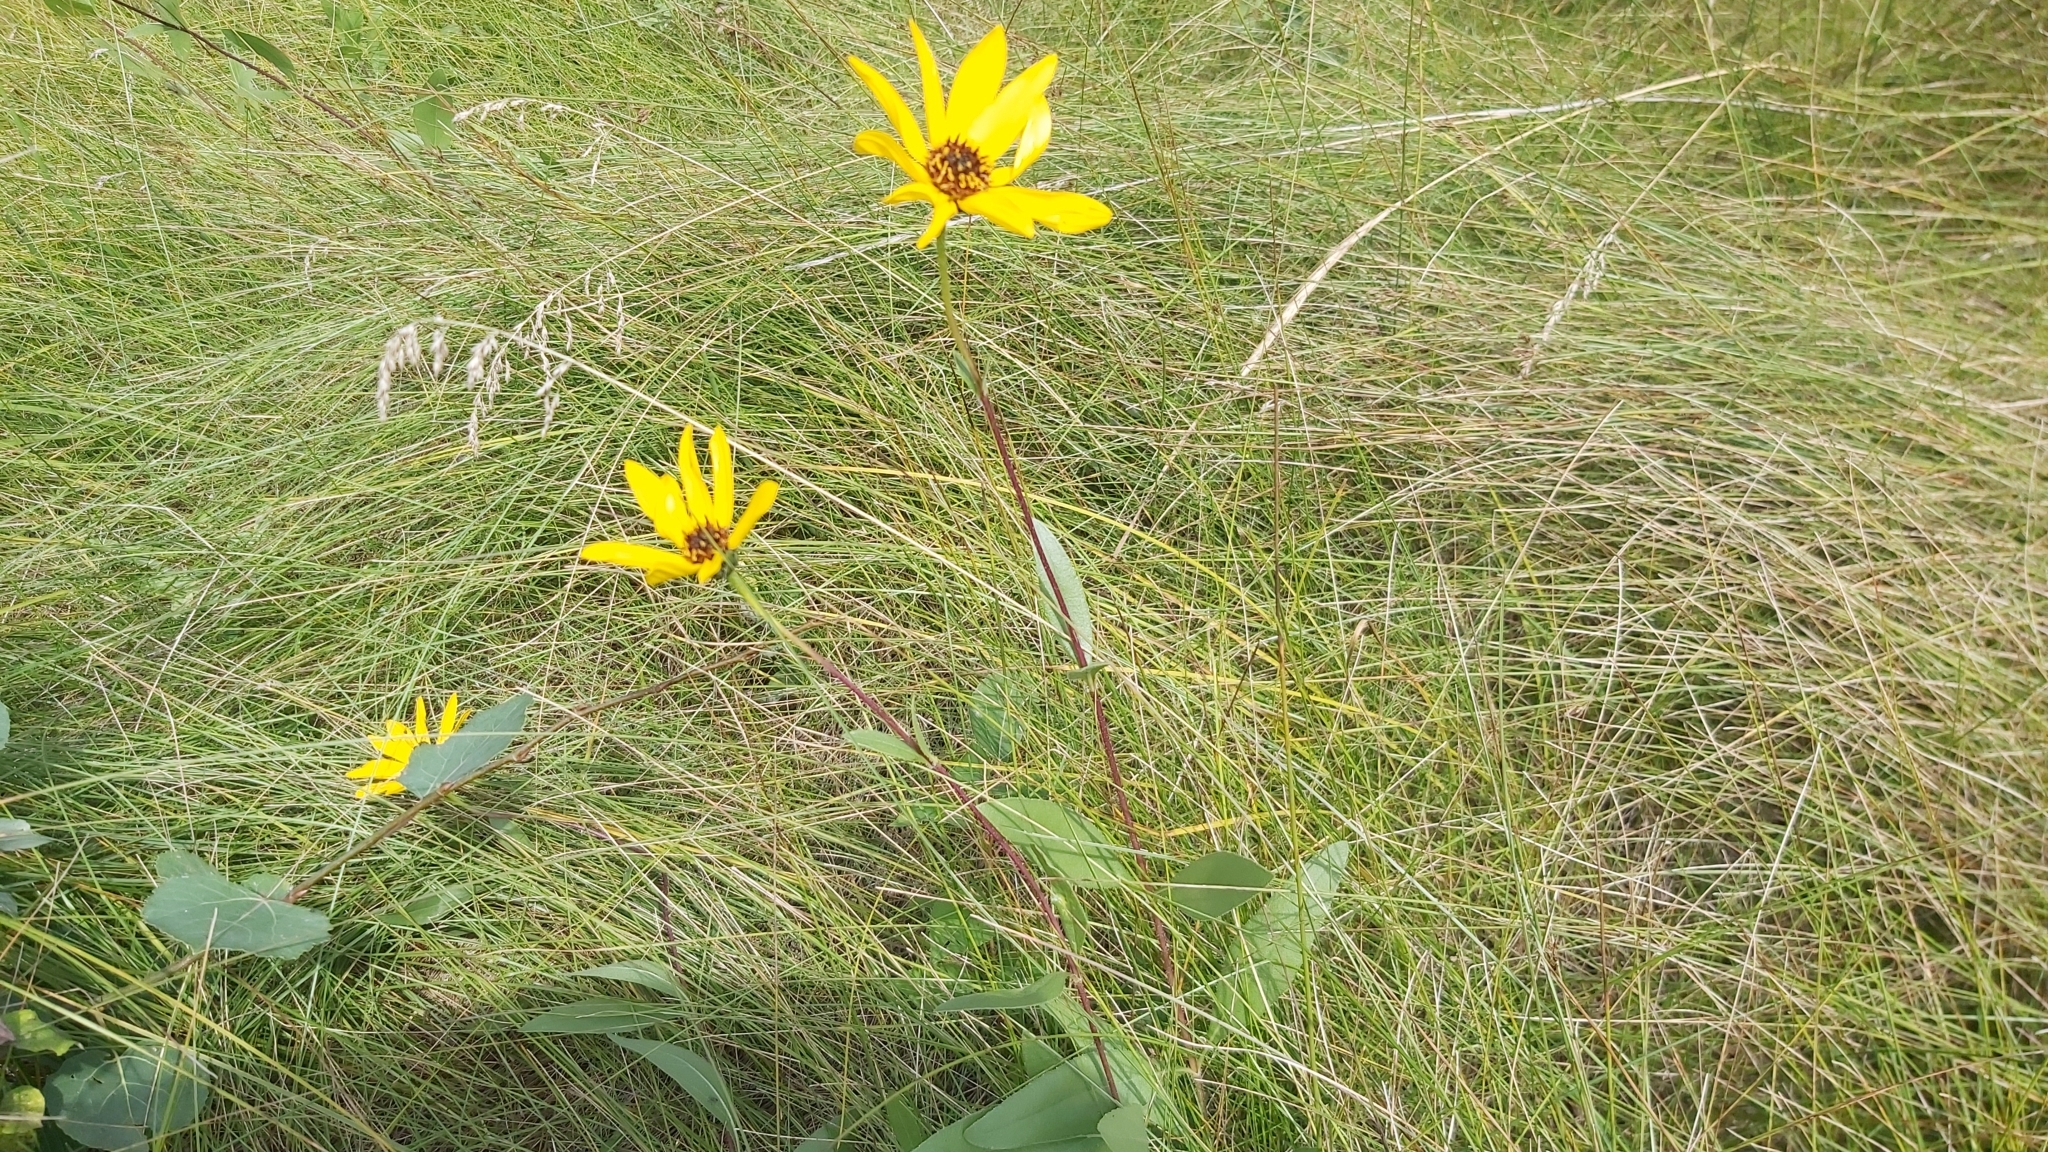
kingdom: Plantae
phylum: Tracheophyta
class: Magnoliopsida
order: Asterales
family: Asteraceae
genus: Helianthus
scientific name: Helianthus pauciflorus
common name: Stiff sunflower
